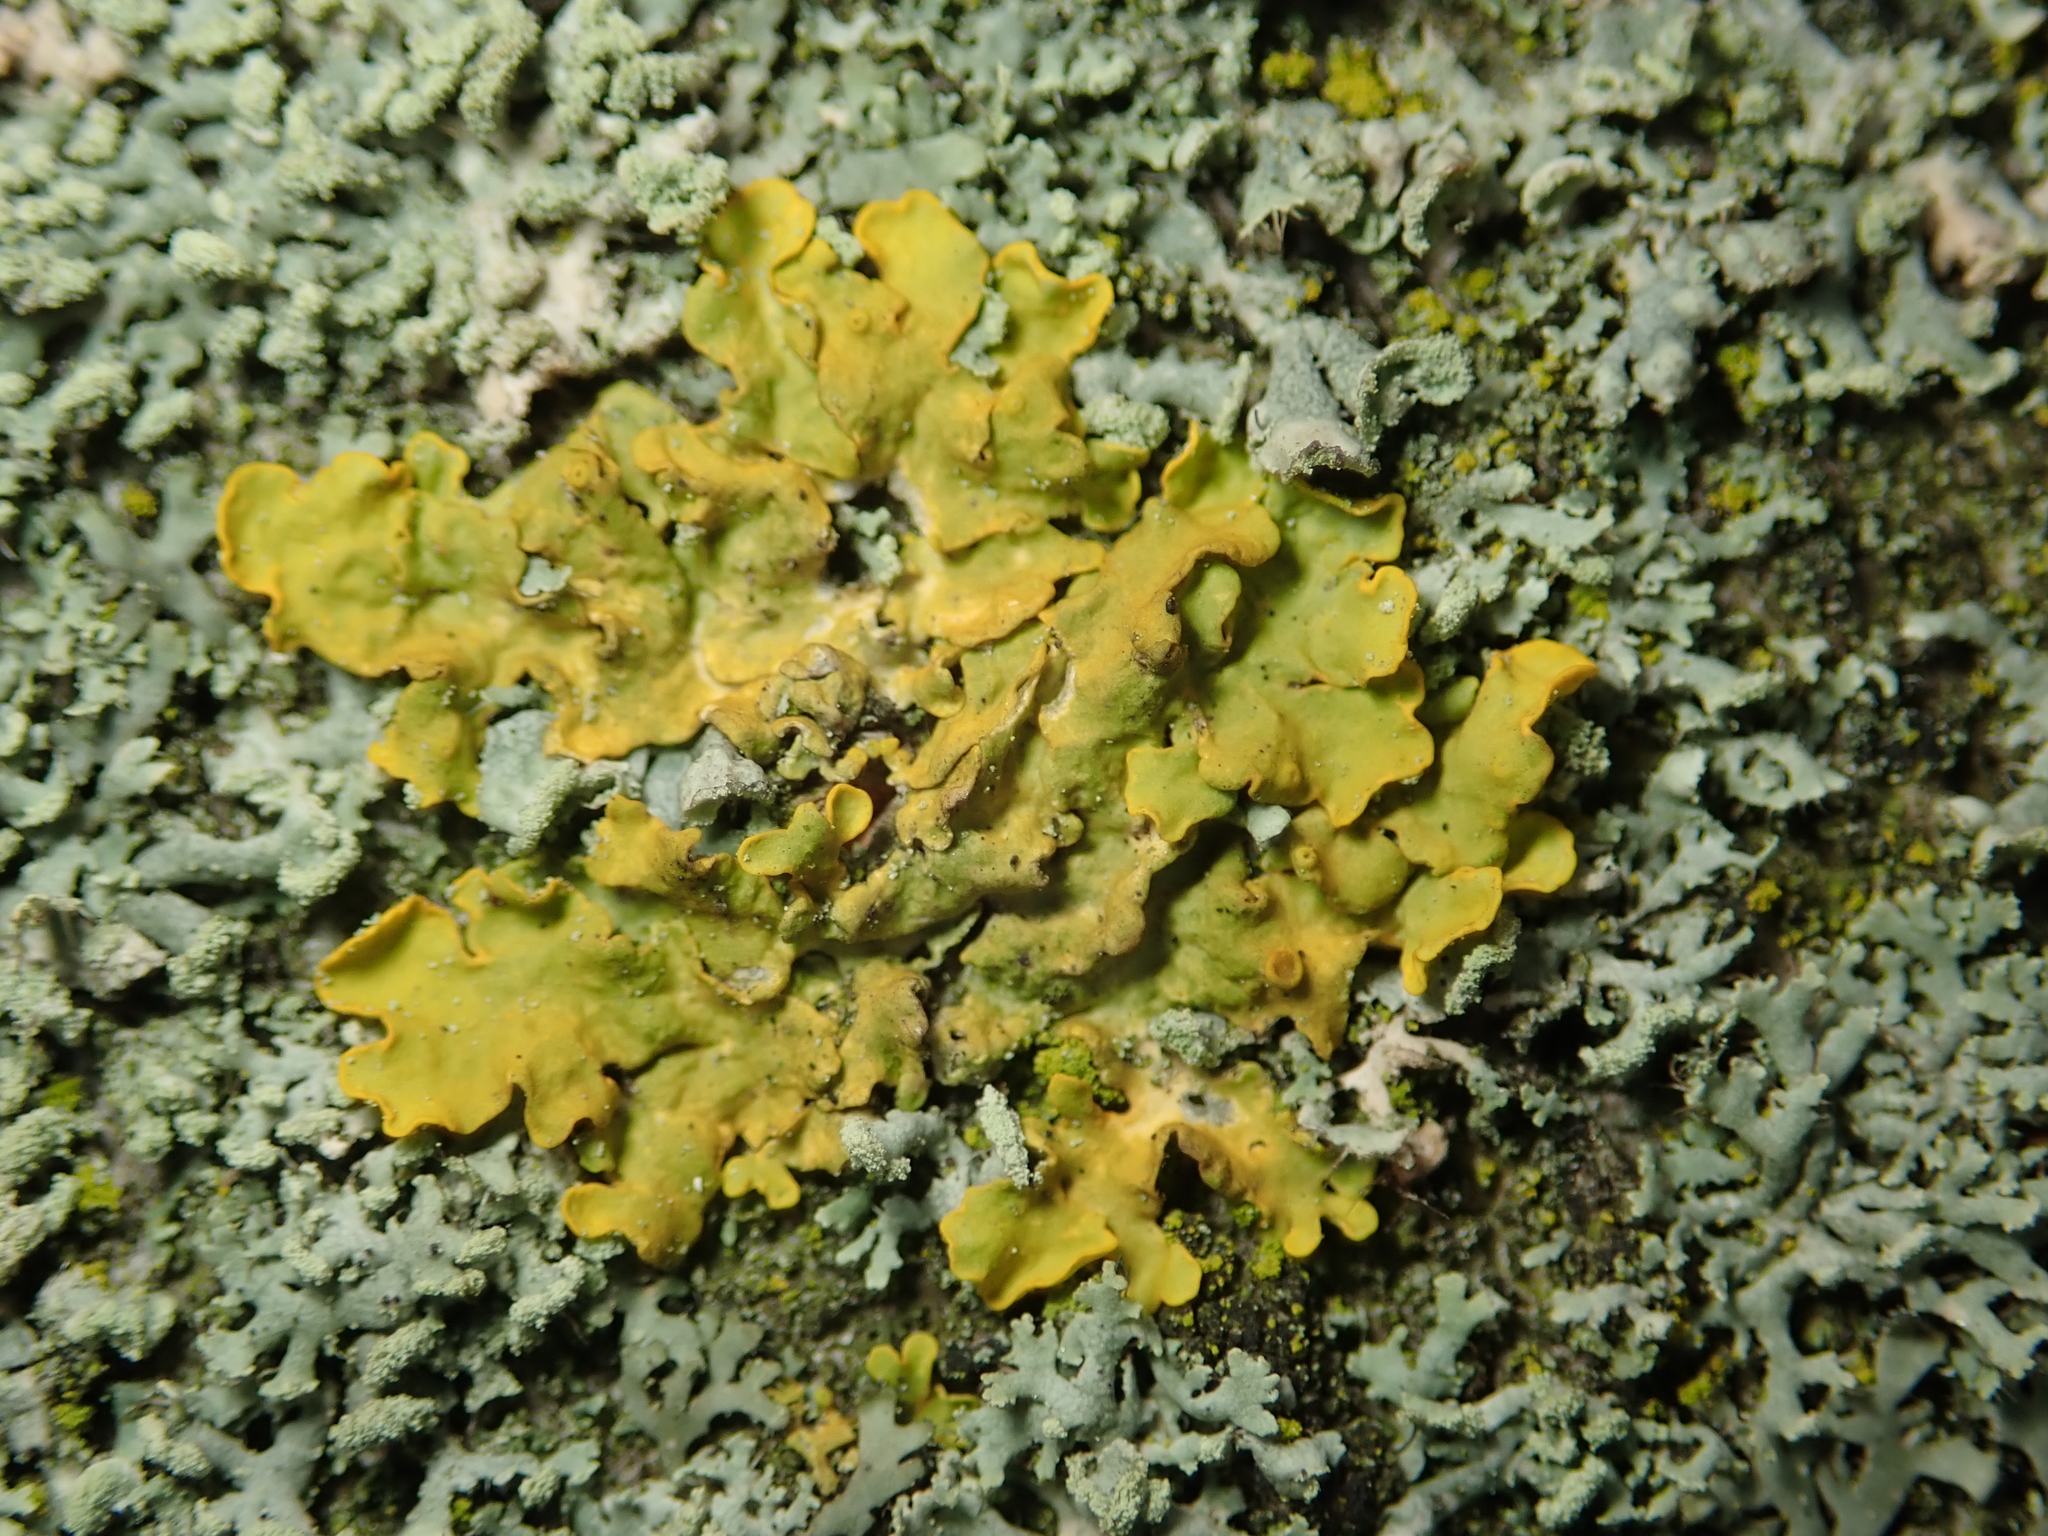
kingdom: Fungi
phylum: Ascomycota
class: Lecanoromycetes
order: Teloschistales
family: Teloschistaceae
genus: Xanthoria
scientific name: Xanthoria parietina
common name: Common orange lichen
